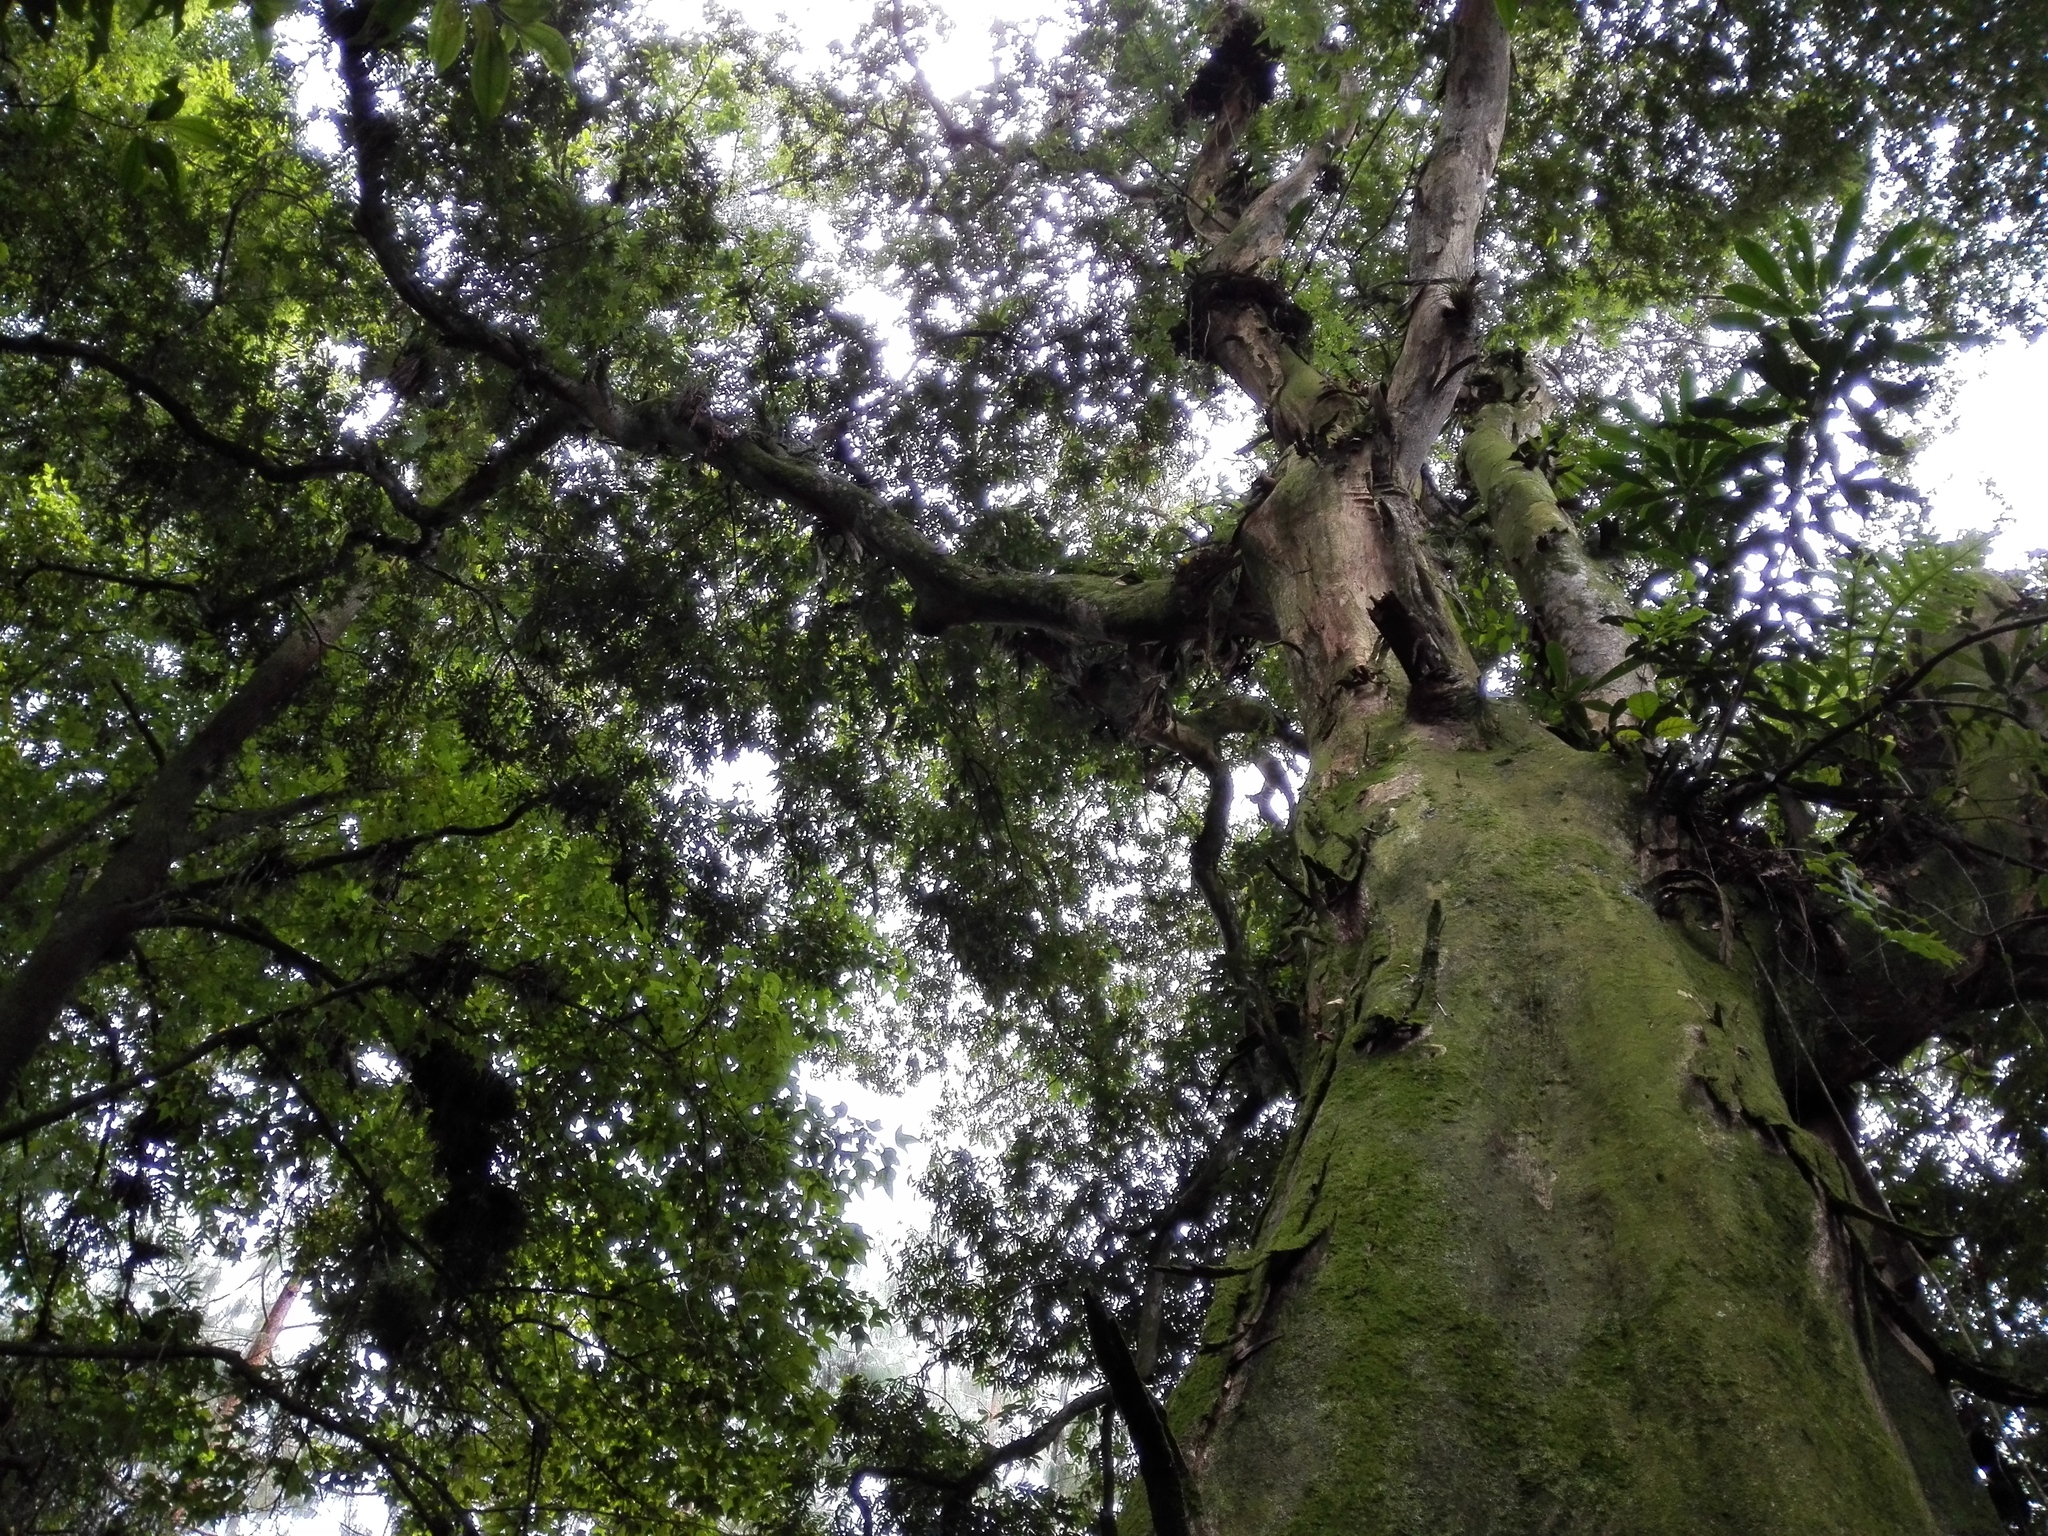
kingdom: Plantae
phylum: Tracheophyta
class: Magnoliopsida
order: Fagales
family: Juglandaceae
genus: Oreomunnea
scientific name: Oreomunnea mexicana
